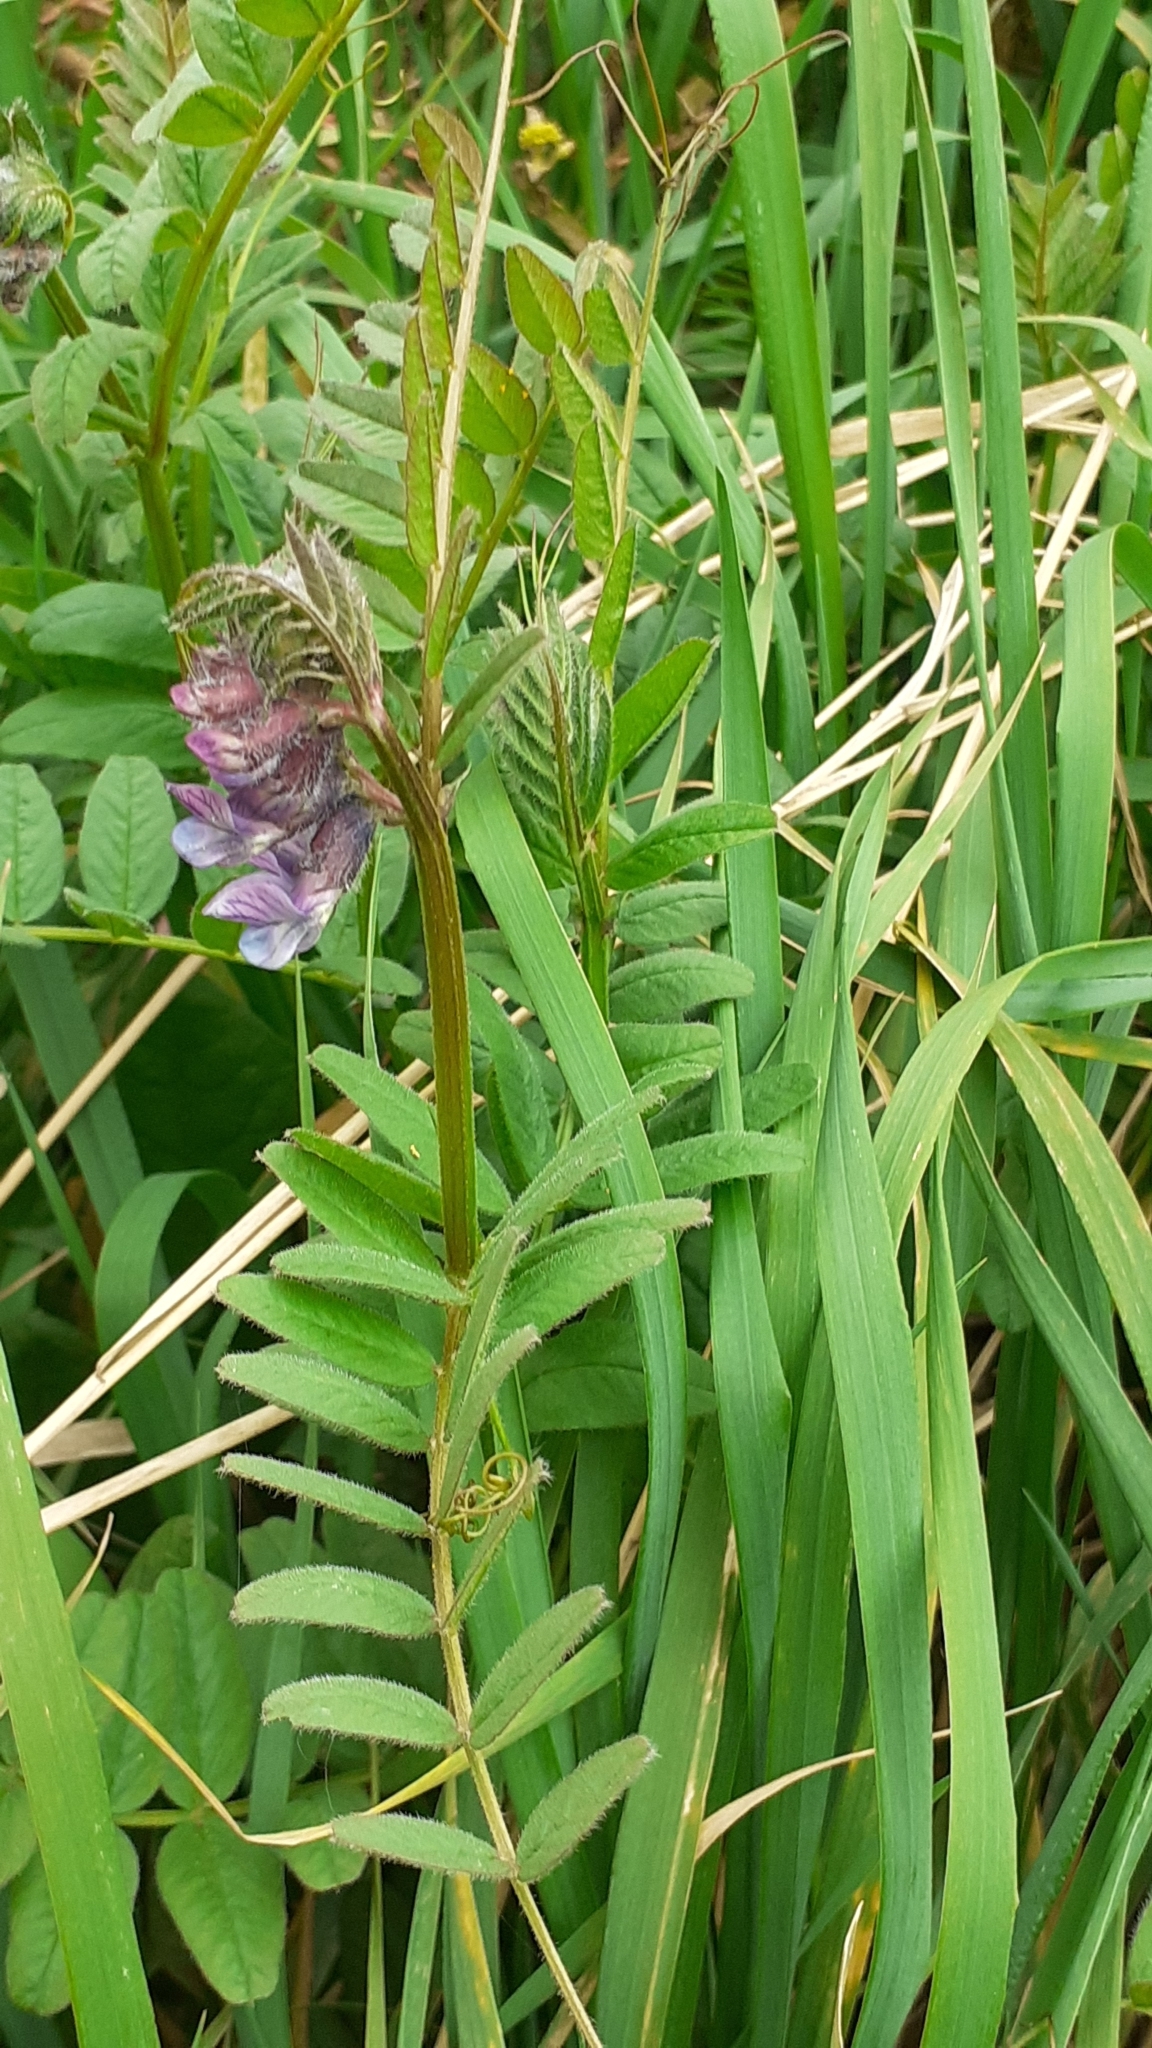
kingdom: Plantae
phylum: Tracheophyta
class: Magnoliopsida
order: Fabales
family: Fabaceae
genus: Vicia
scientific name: Vicia sepium
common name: Bush vetch
